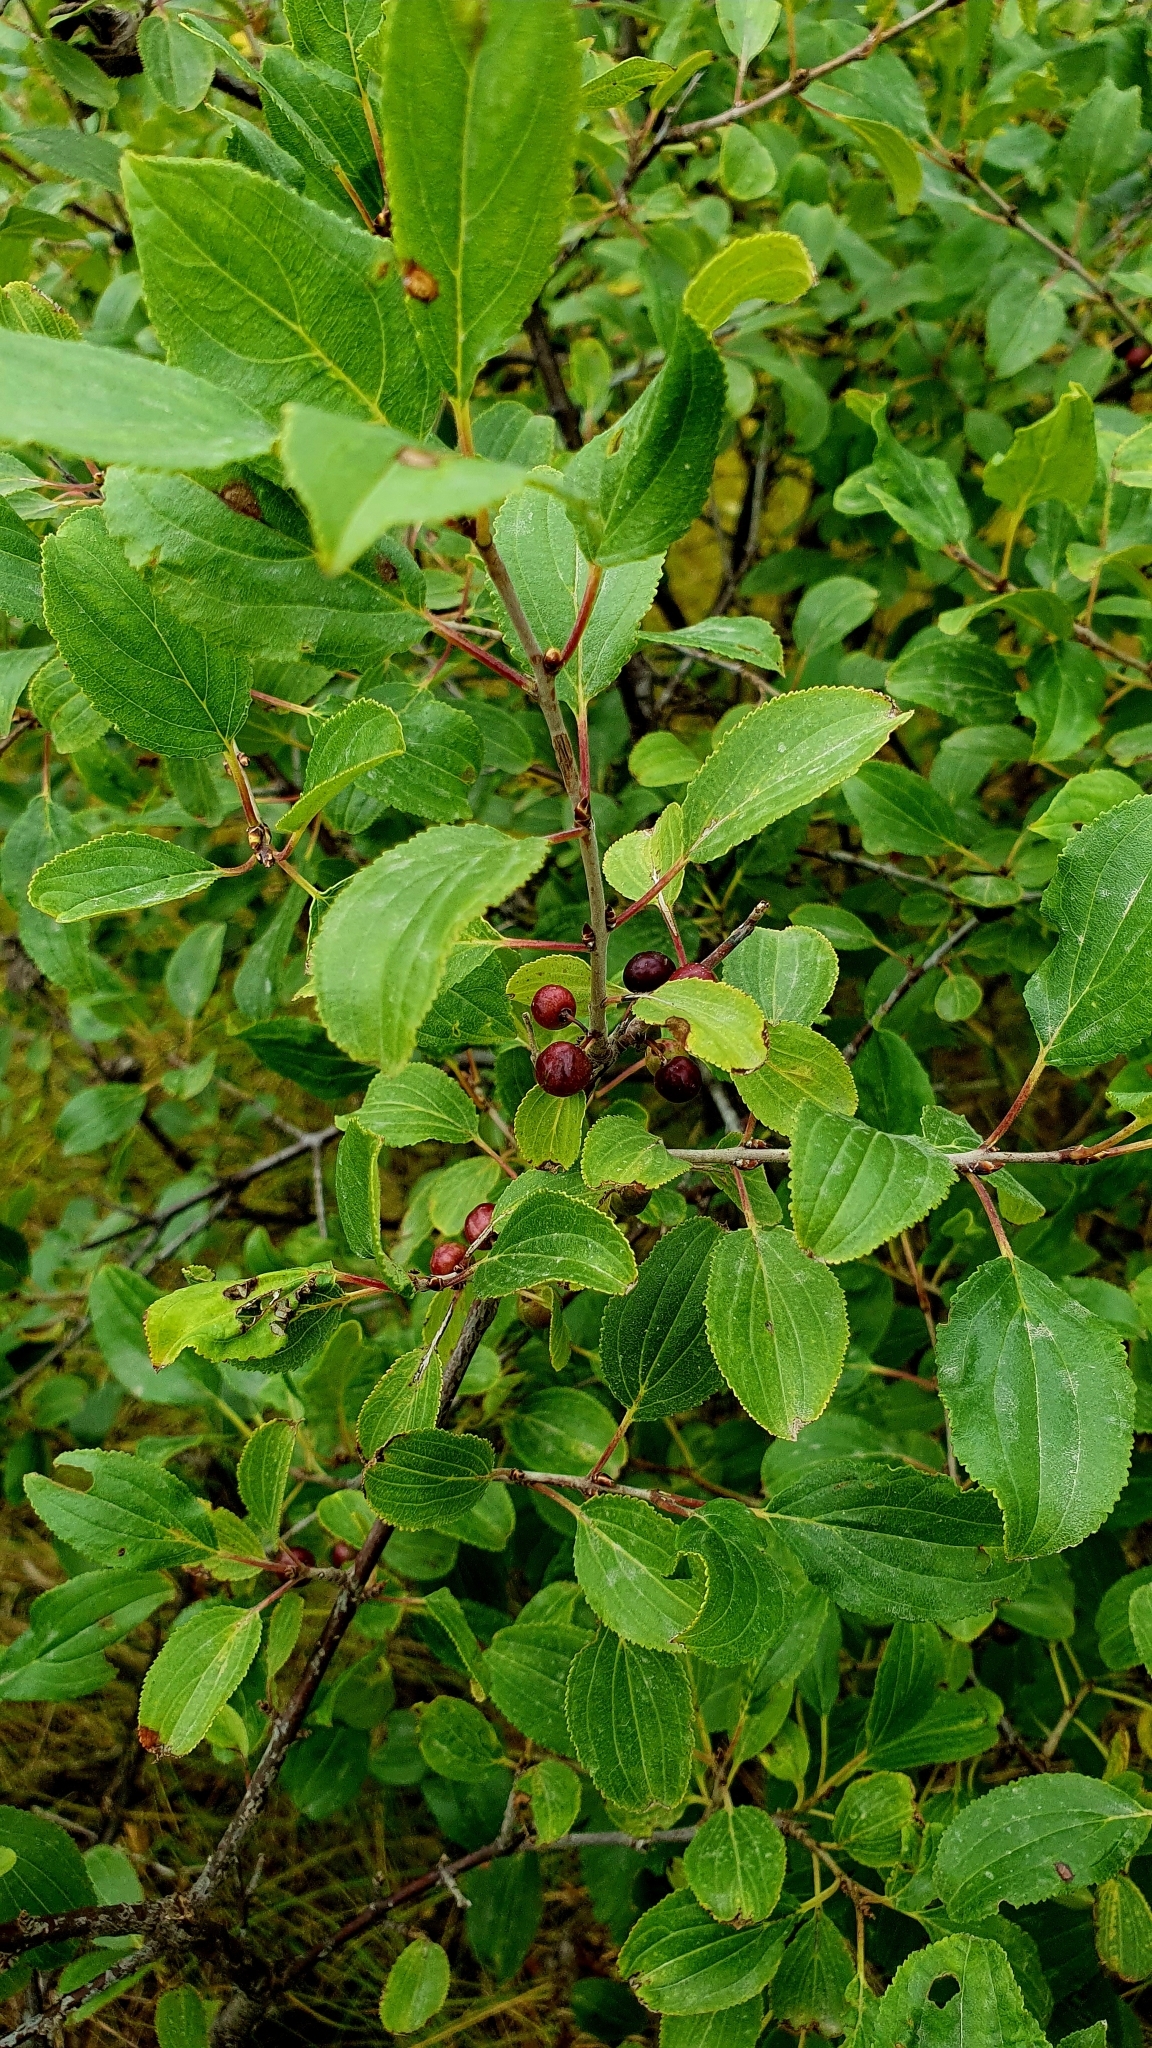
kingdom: Plantae
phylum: Tracheophyta
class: Magnoliopsida
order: Rosales
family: Rhamnaceae
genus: Rhamnus
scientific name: Rhamnus cathartica
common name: Common buckthorn
